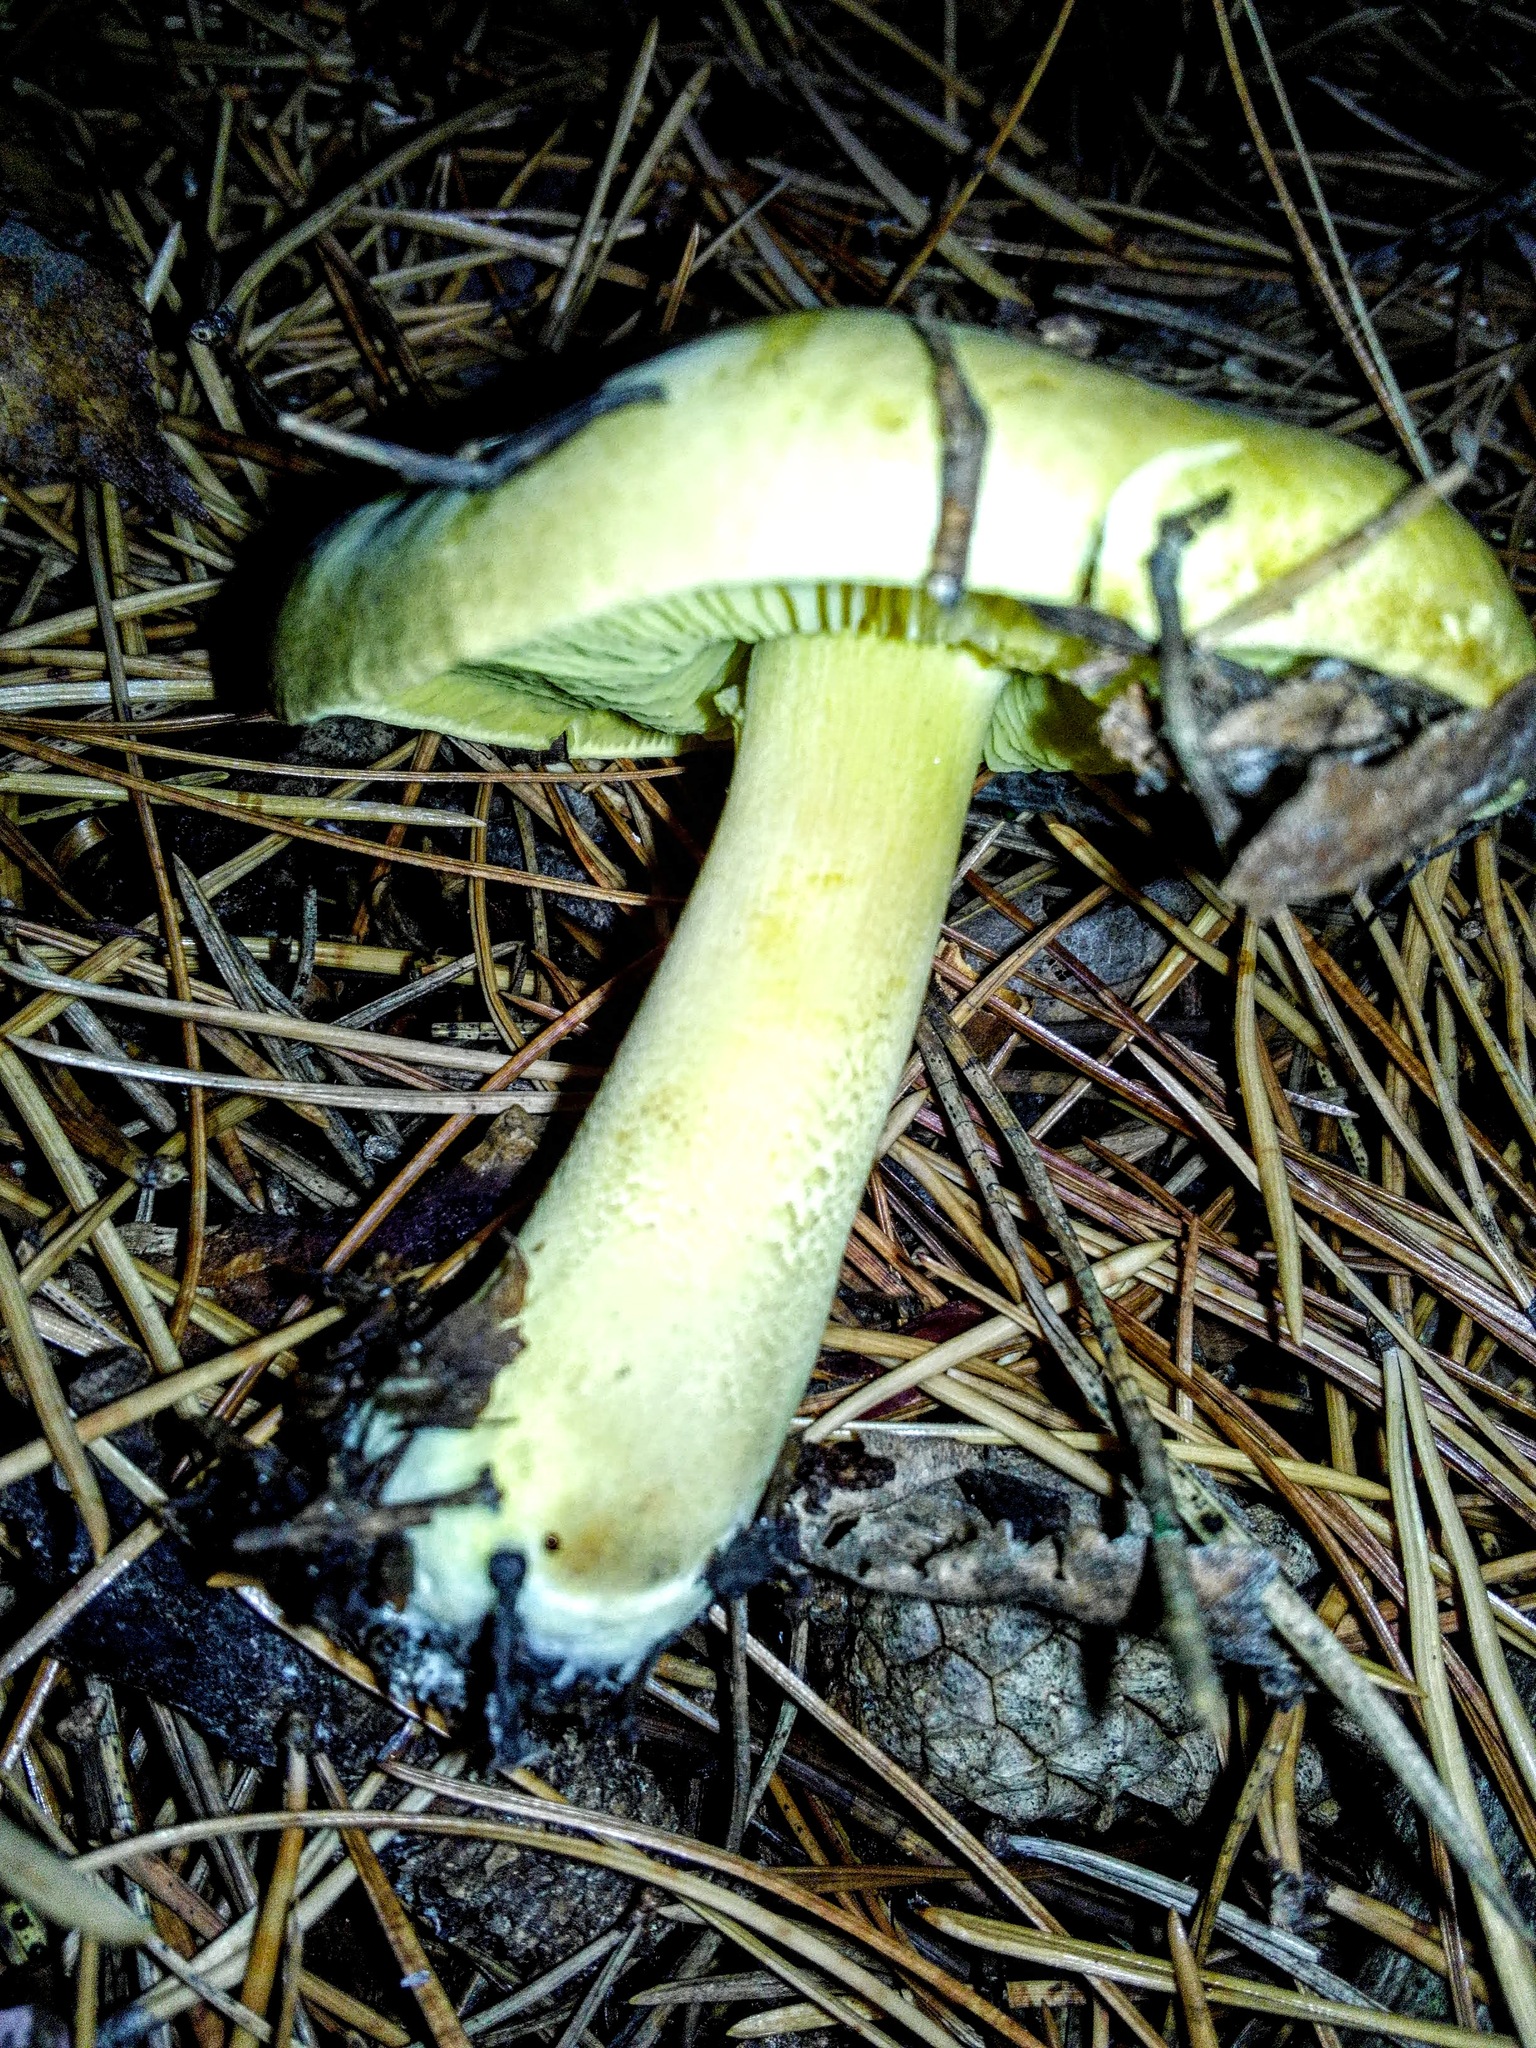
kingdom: Fungi
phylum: Basidiomycota
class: Agaricomycetes
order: Agaricales
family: Tricholomataceae
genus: Tricholoma
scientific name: Tricholoma equestre
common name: Yellow knight
